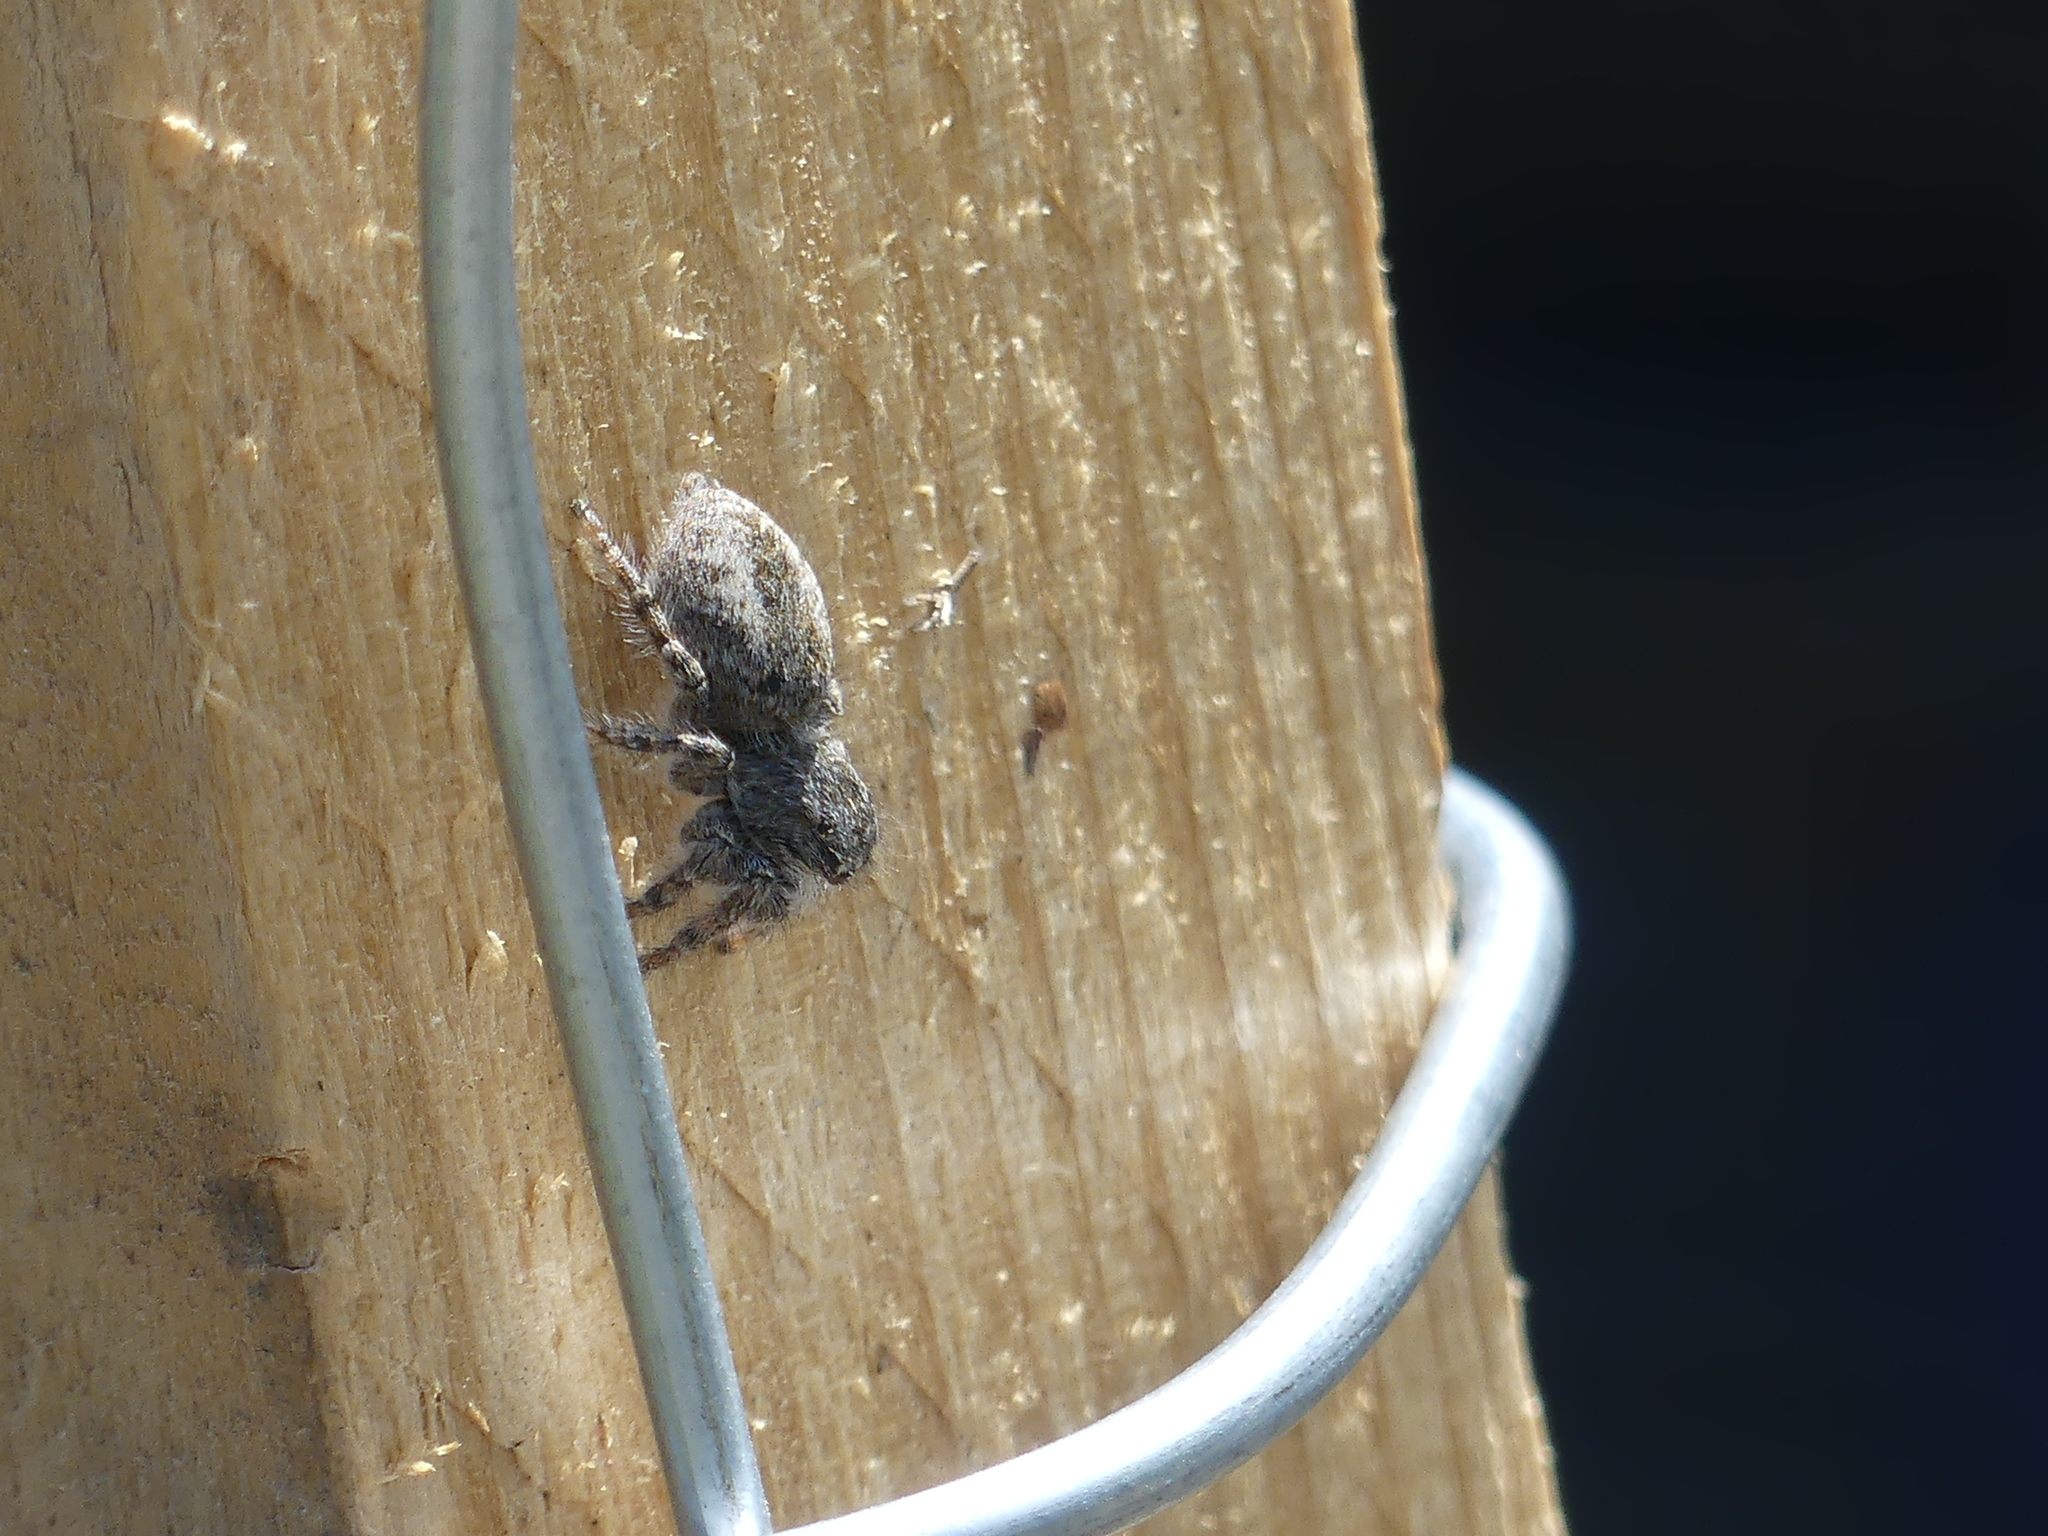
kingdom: Animalia
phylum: Arthropoda
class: Arachnida
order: Araneae
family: Salticidae
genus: Philaeus
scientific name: Philaeus chrysops
